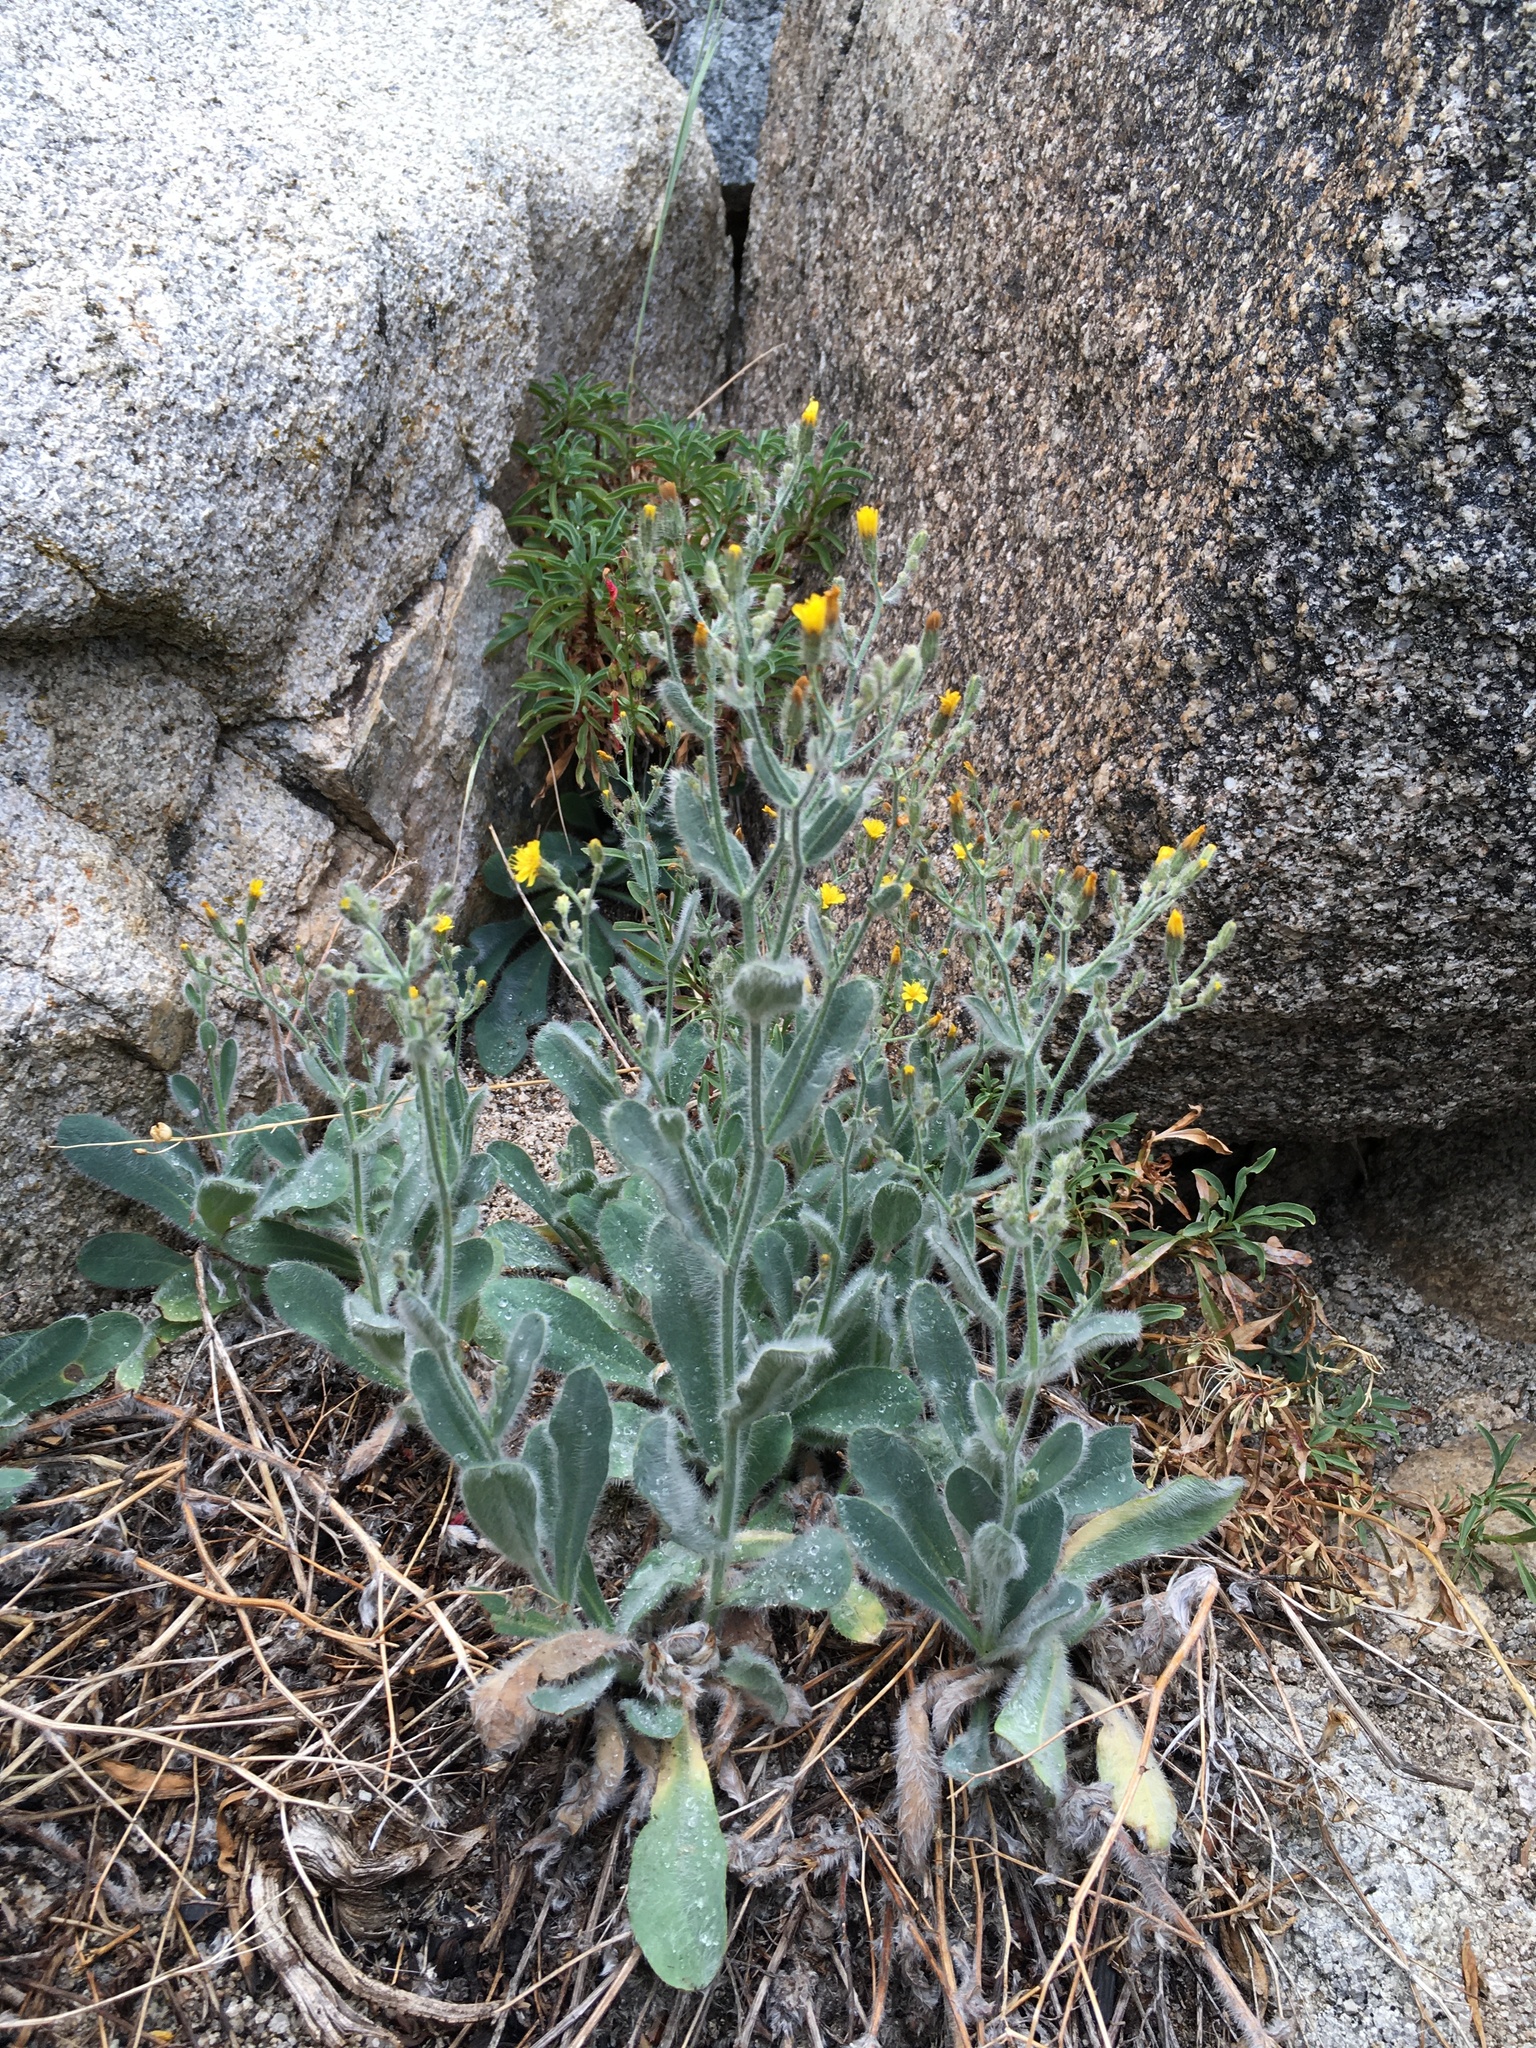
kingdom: Plantae
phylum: Tracheophyta
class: Magnoliopsida
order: Asterales
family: Asteraceae
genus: Hieracium
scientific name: Hieracium horridum
